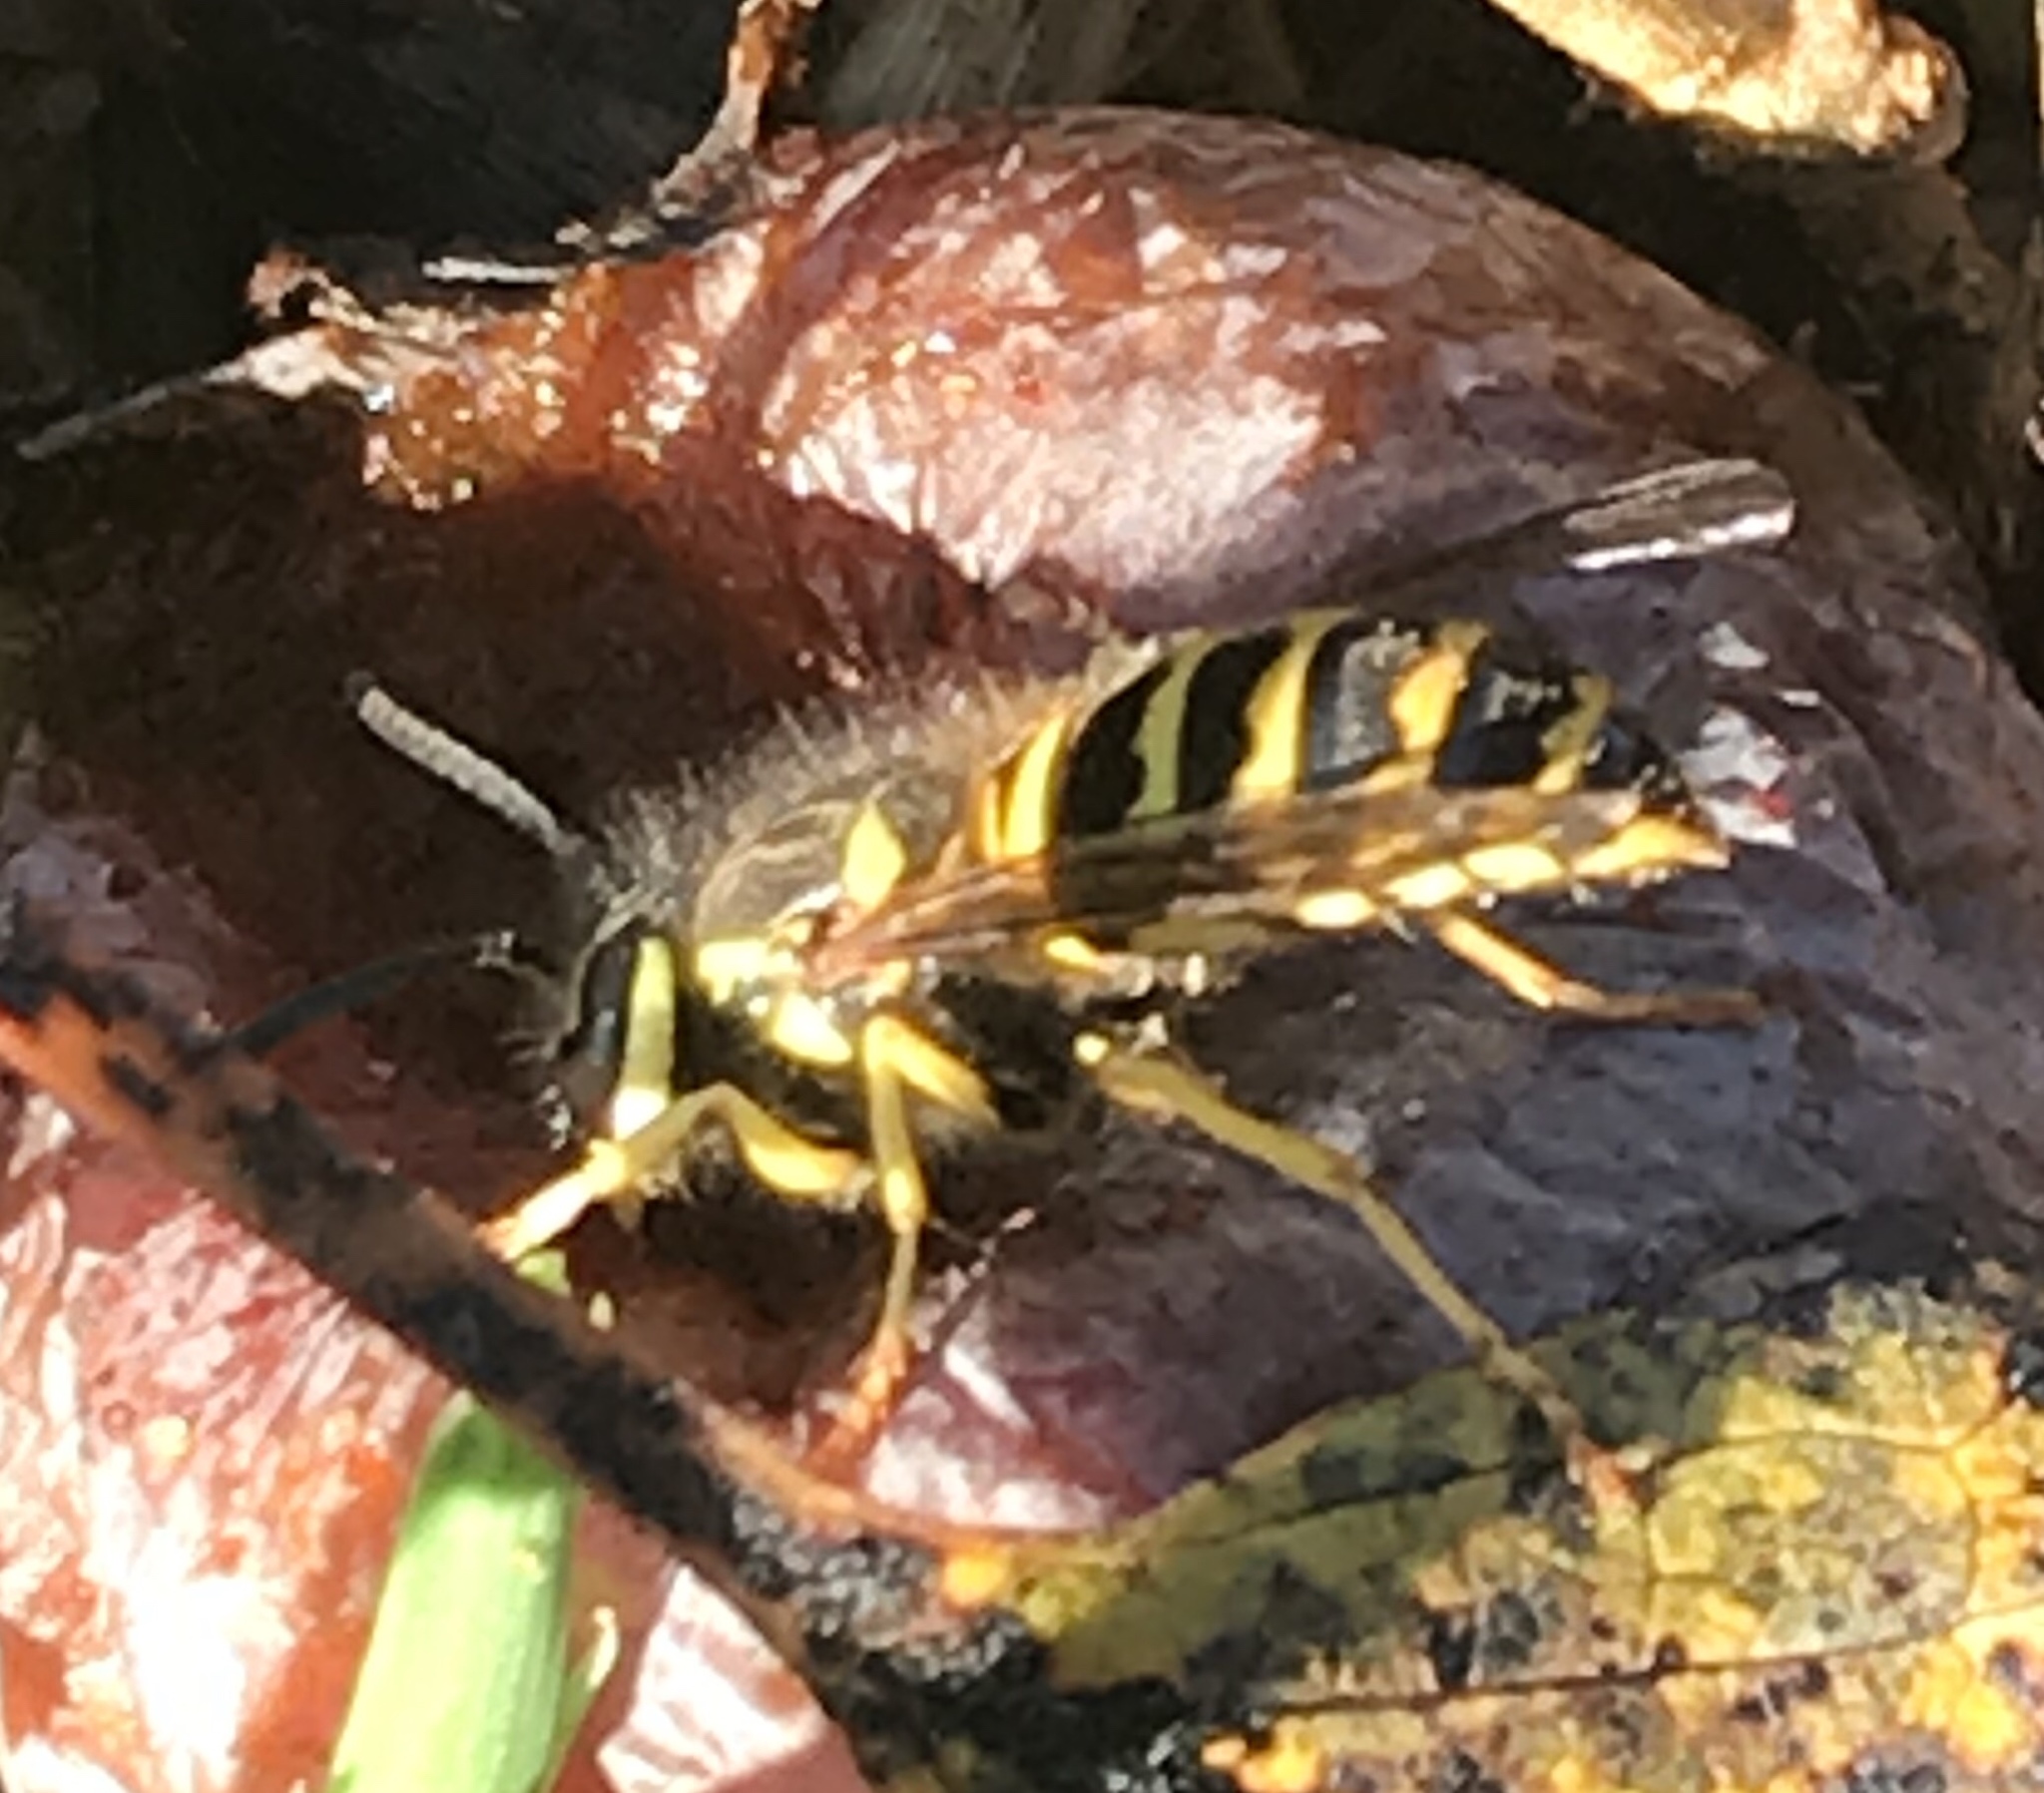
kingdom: Animalia
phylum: Arthropoda
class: Insecta
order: Hymenoptera
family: Vespidae
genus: Vespula
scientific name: Vespula maculifrons
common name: Eastern yellowjacket
